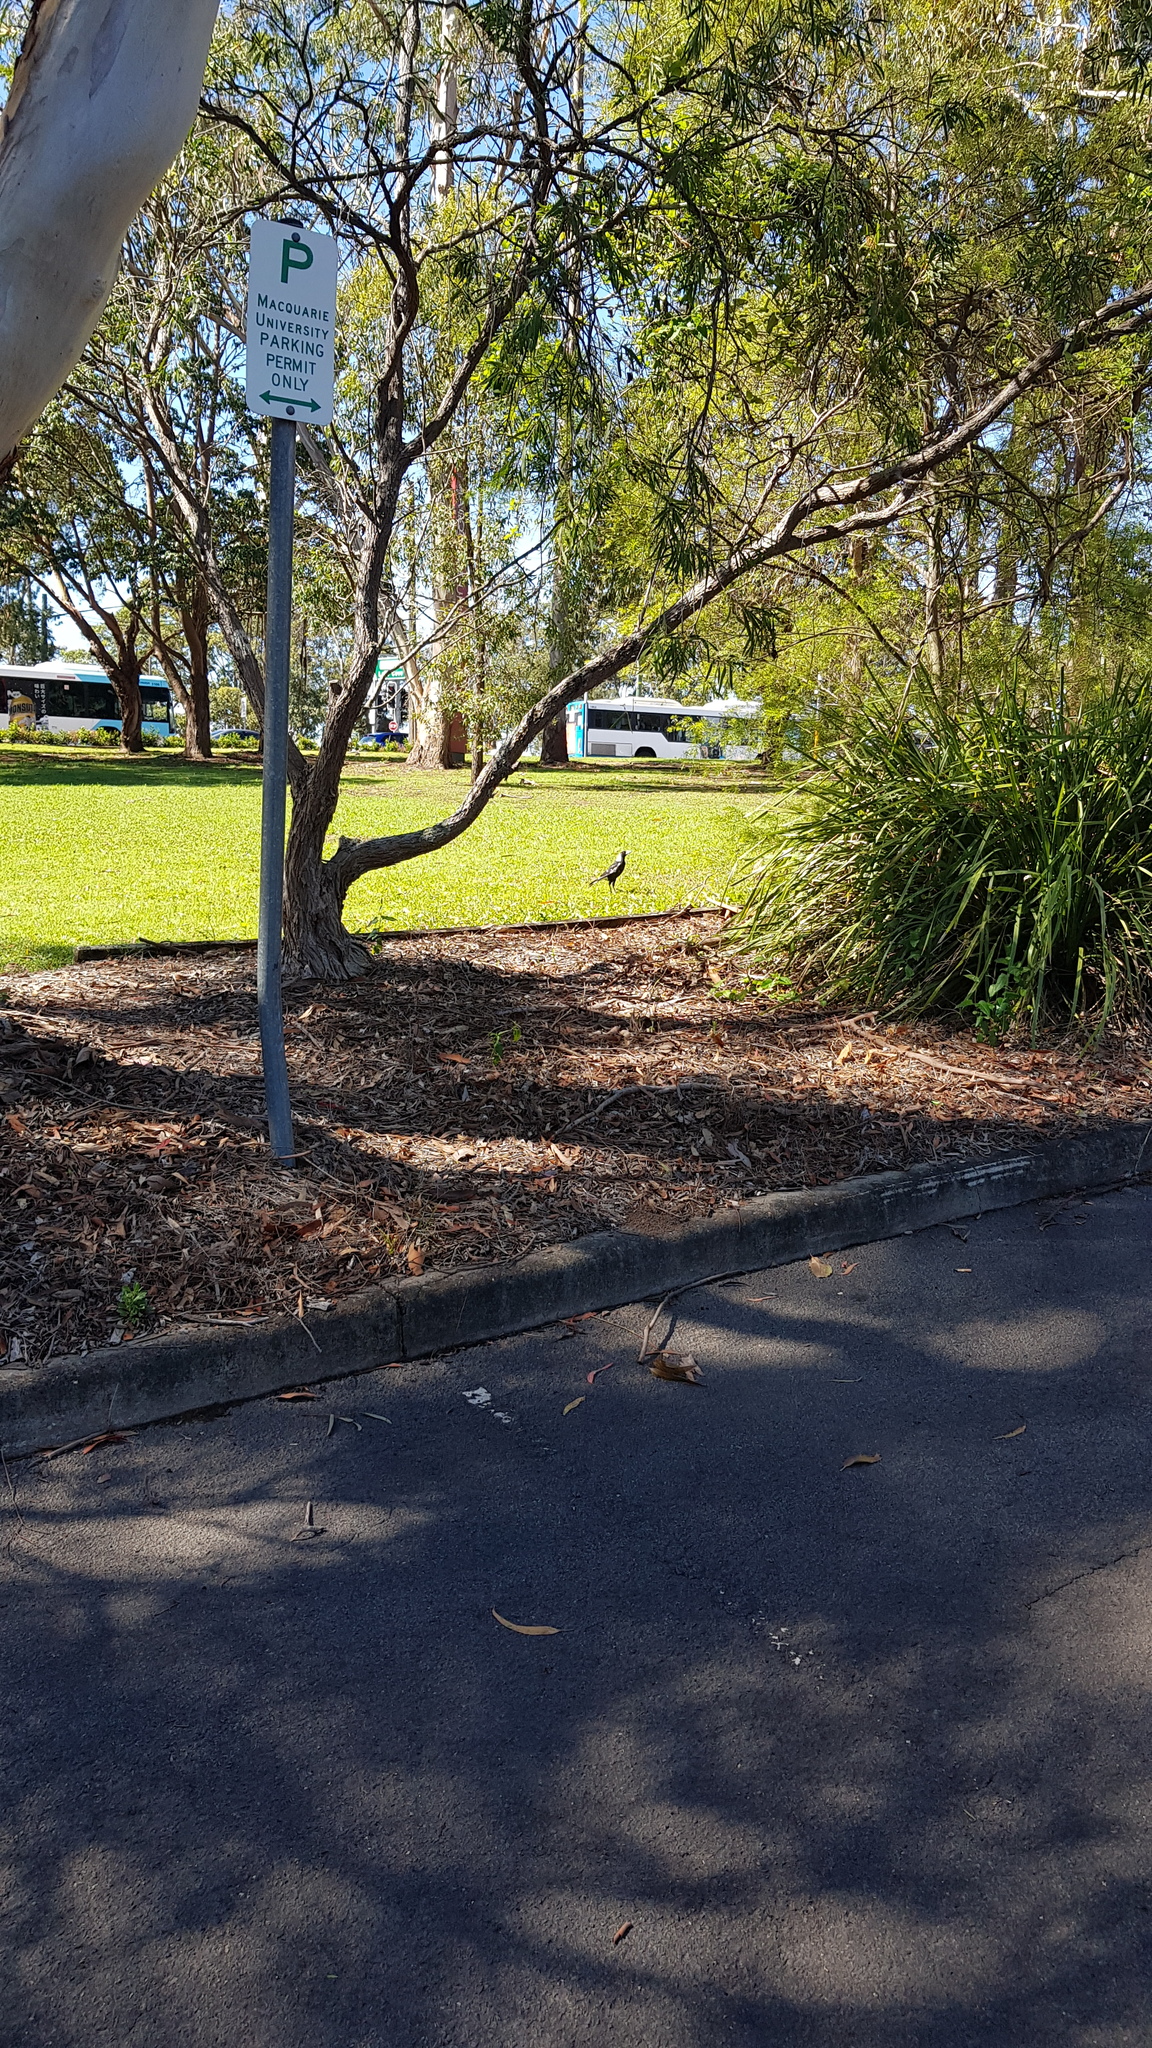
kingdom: Animalia
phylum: Chordata
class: Aves
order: Passeriformes
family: Cracticidae
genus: Gymnorhina
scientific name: Gymnorhina tibicen
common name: Australian magpie
